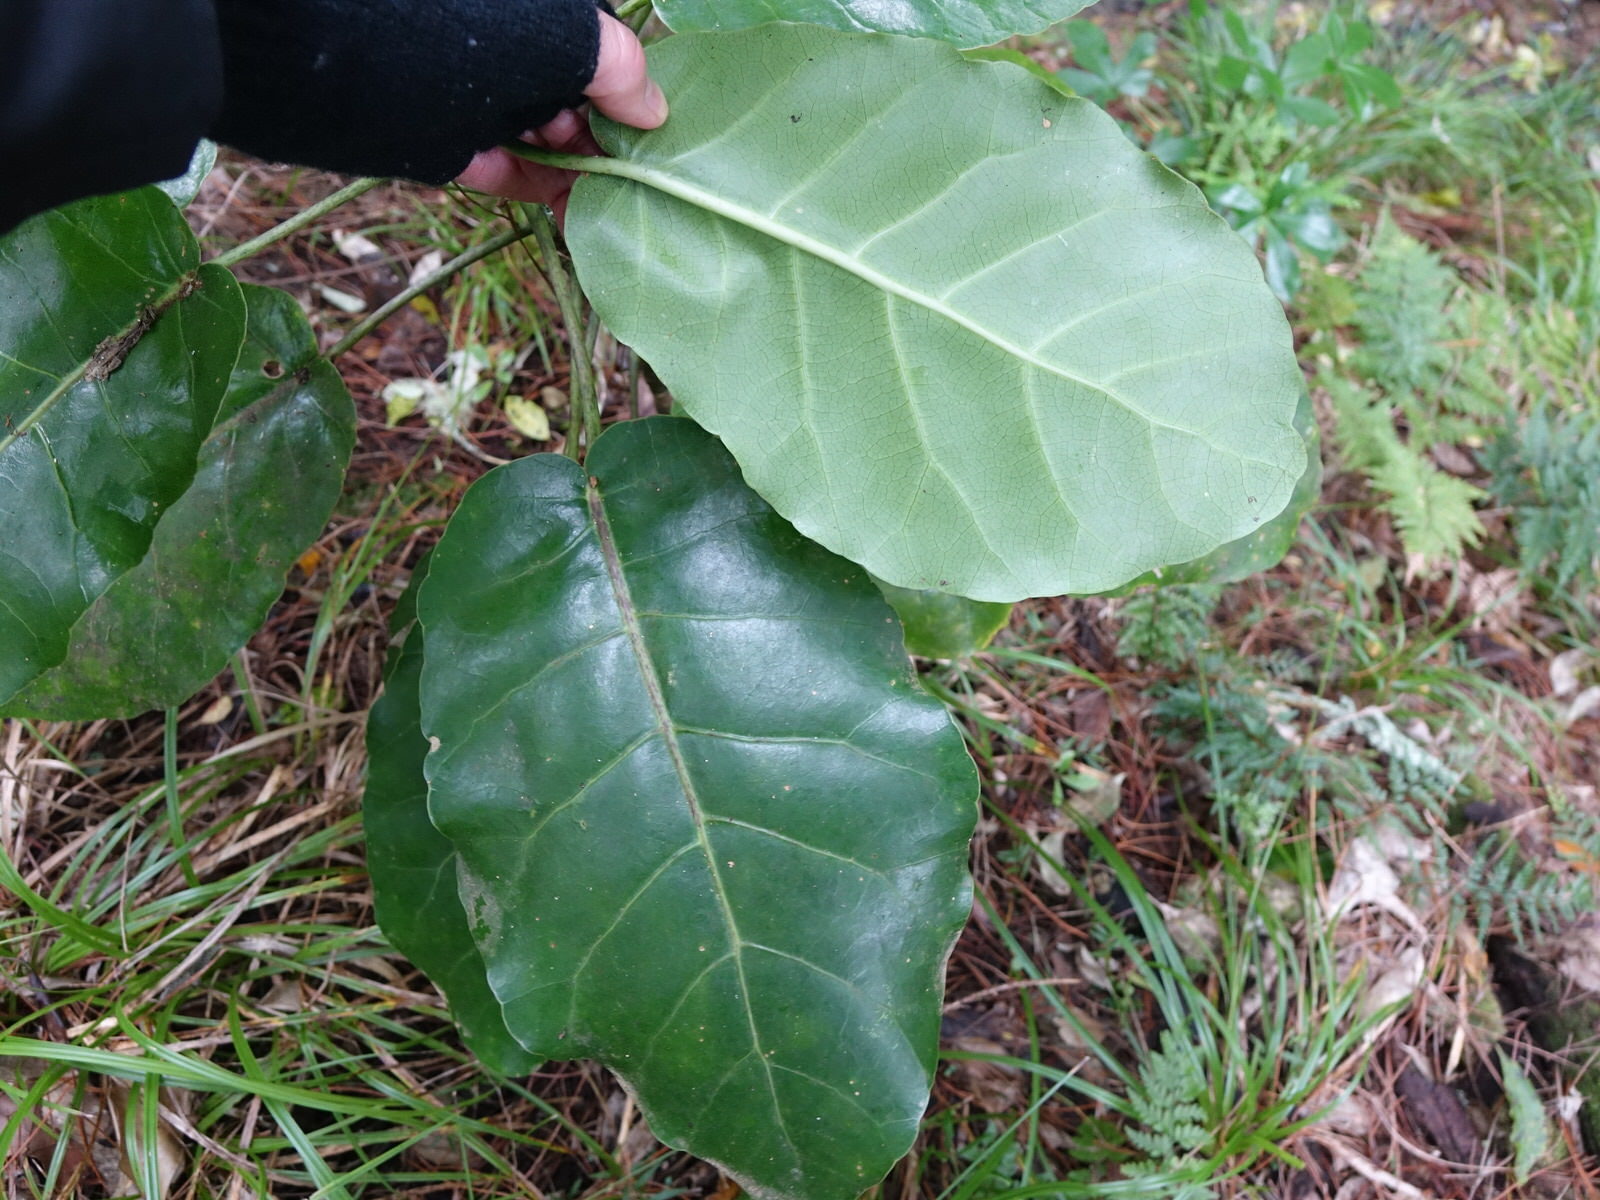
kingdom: Plantae
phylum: Tracheophyta
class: Magnoliopsida
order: Apiales
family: Araliaceae
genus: Meryta
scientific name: Meryta sinclairii
